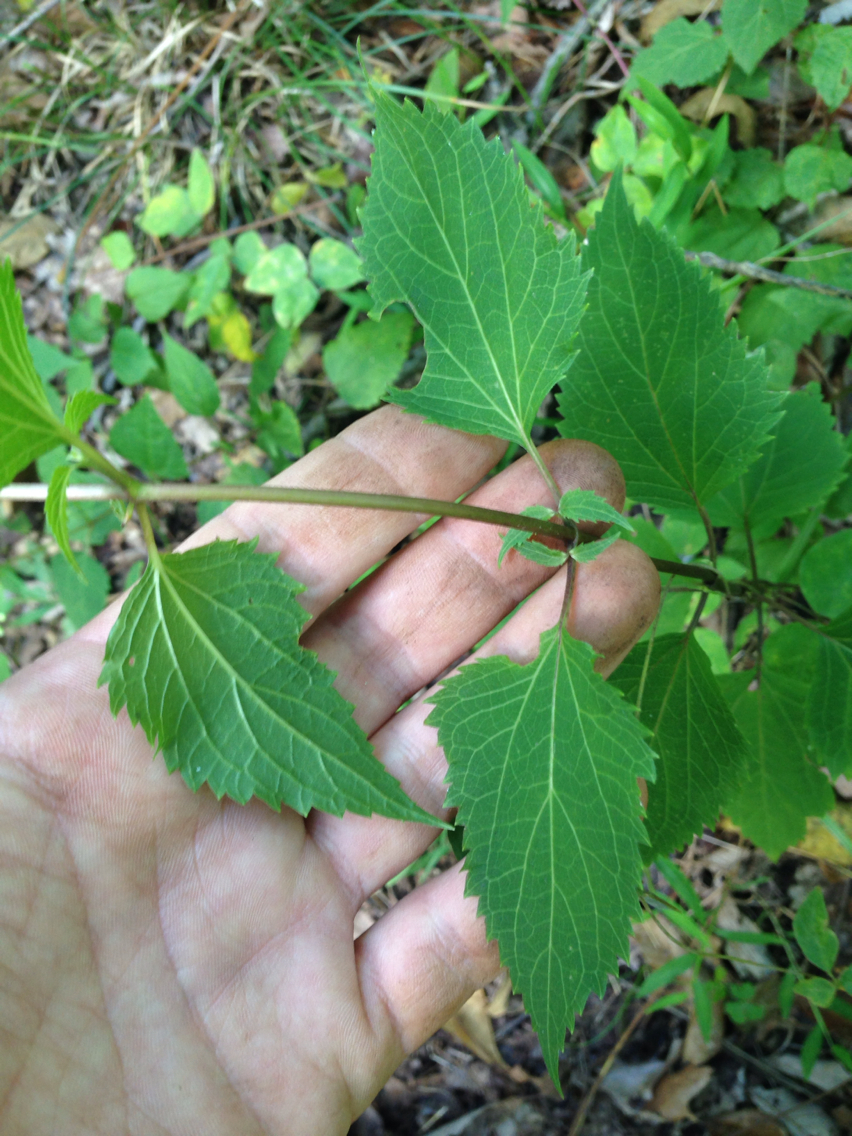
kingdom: Plantae
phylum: Tracheophyta
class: Magnoliopsida
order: Asterales
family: Asteraceae
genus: Ageratina
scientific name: Ageratina altissima
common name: White snakeroot
